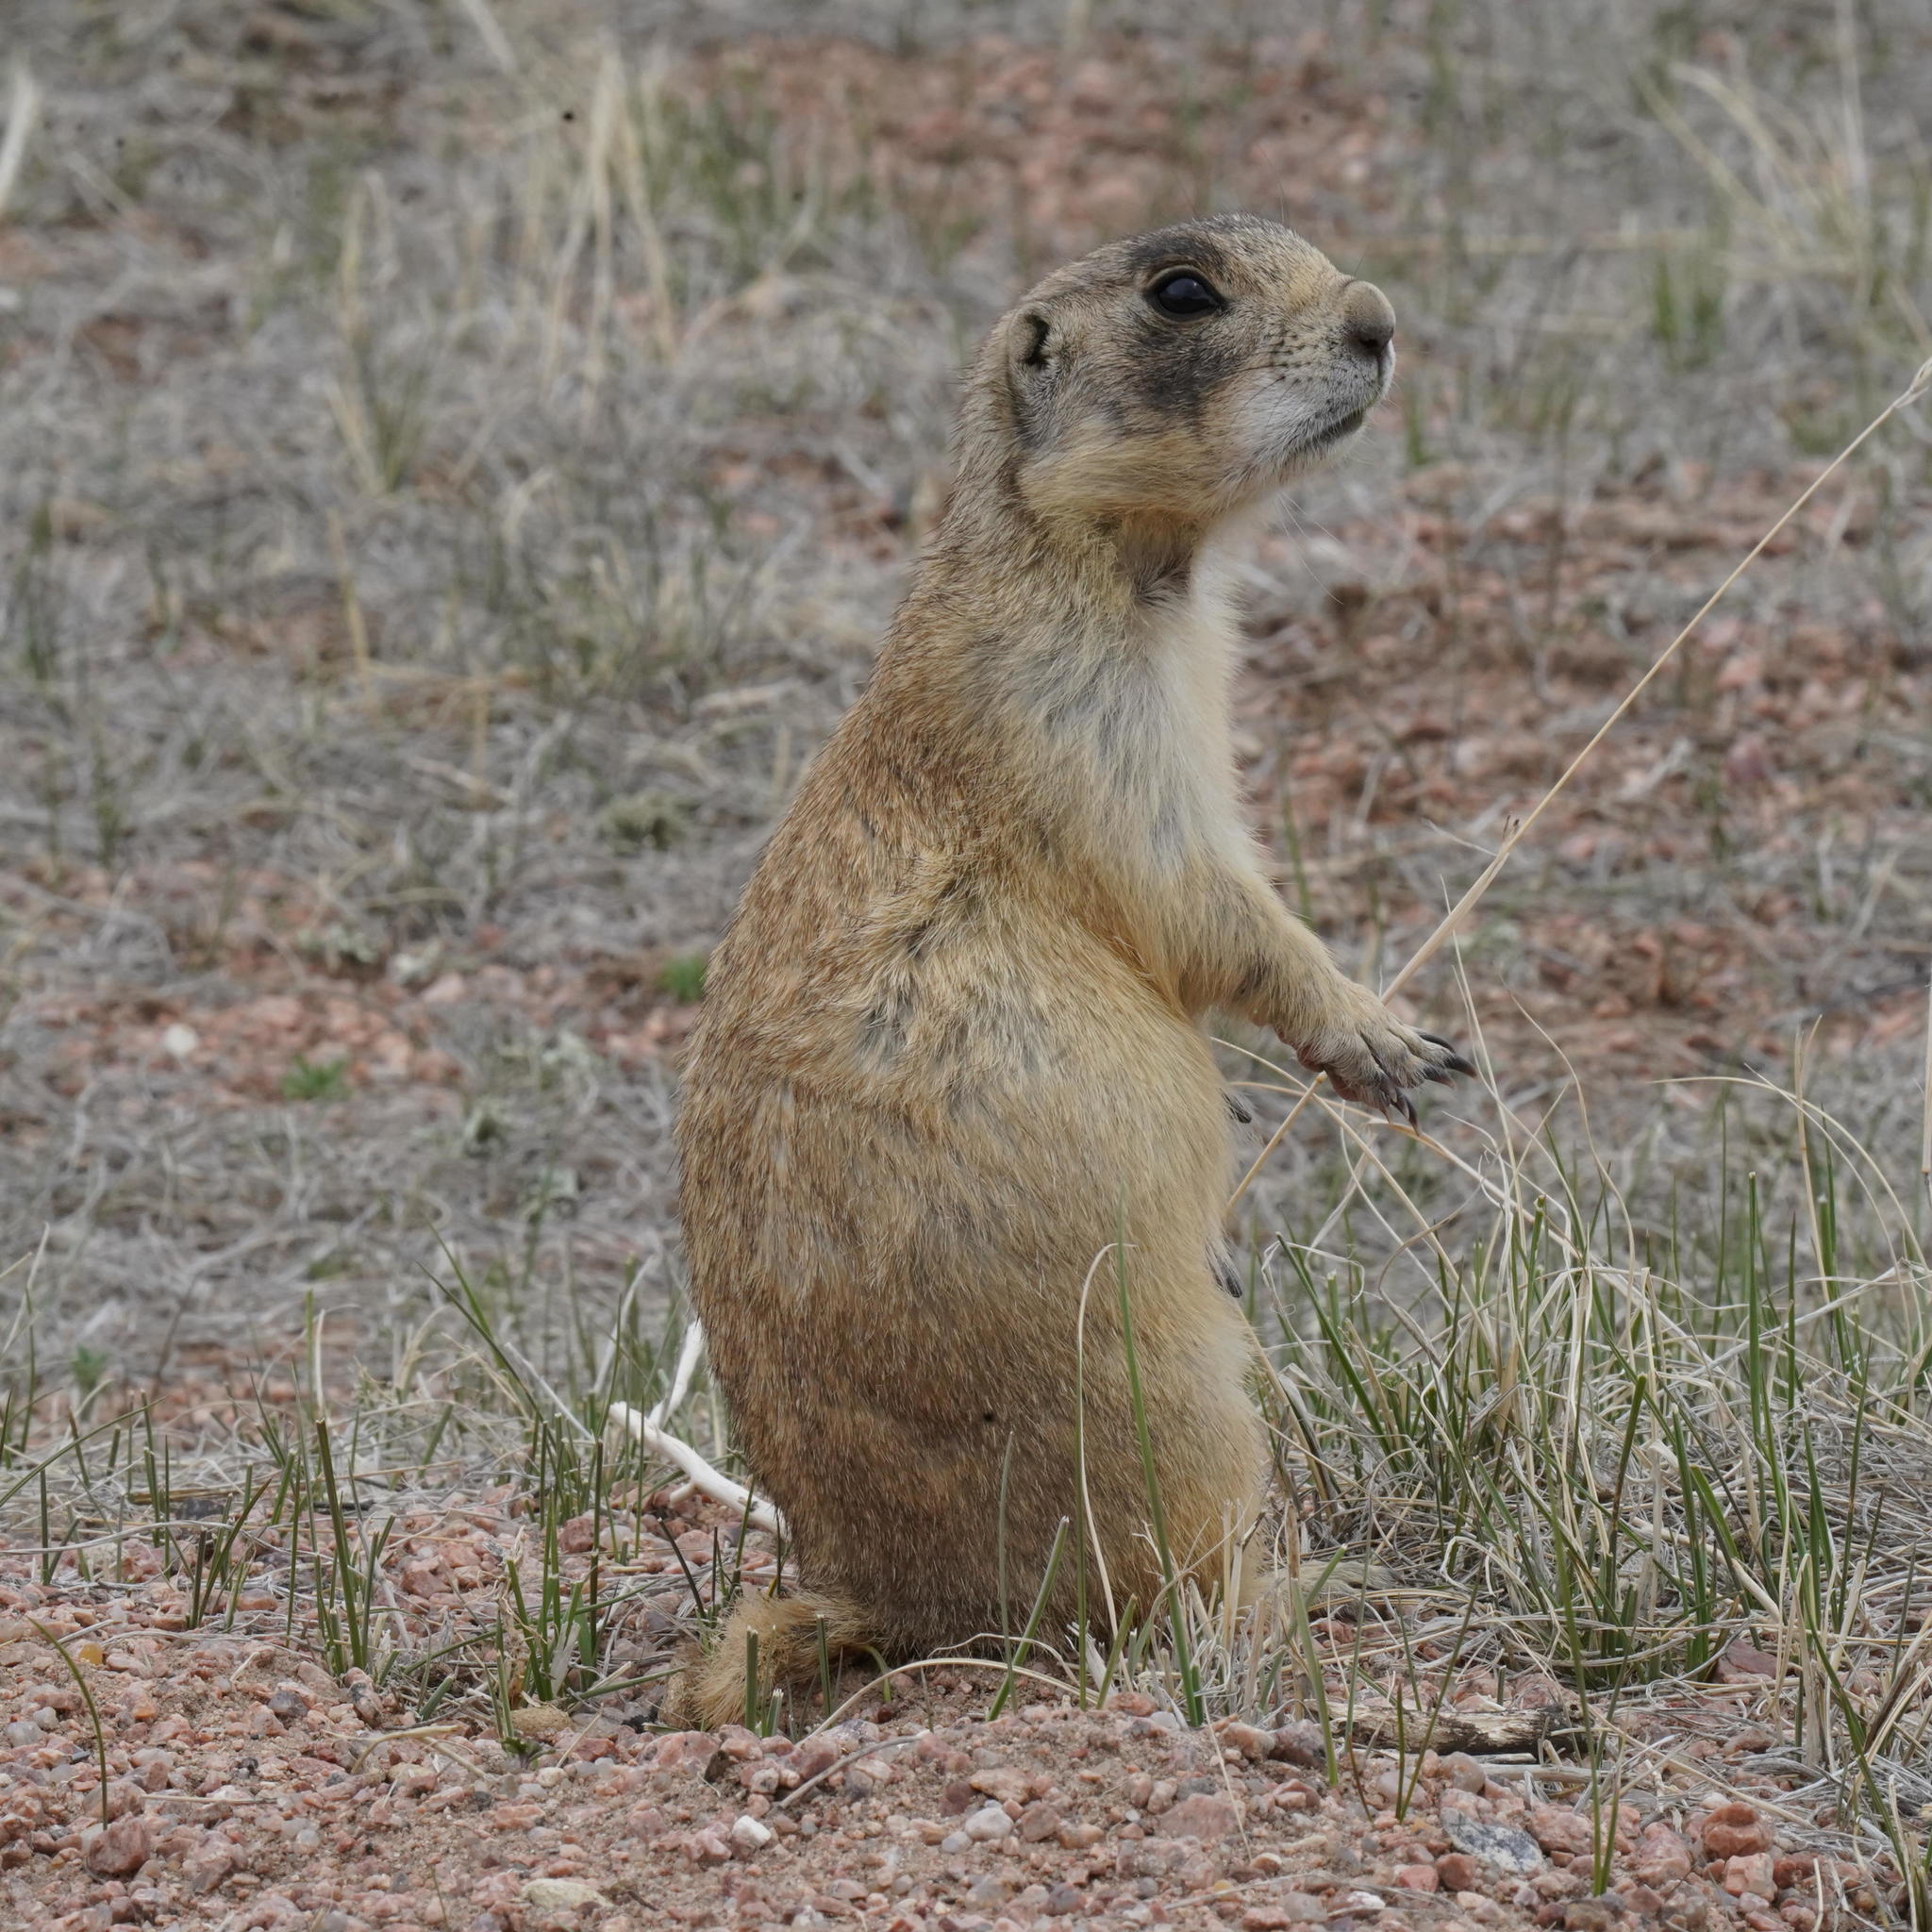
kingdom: Animalia
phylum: Chordata
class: Mammalia
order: Rodentia
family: Sciuridae
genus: Cynomys
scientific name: Cynomys leucurus
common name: White-tailed prairie dog
